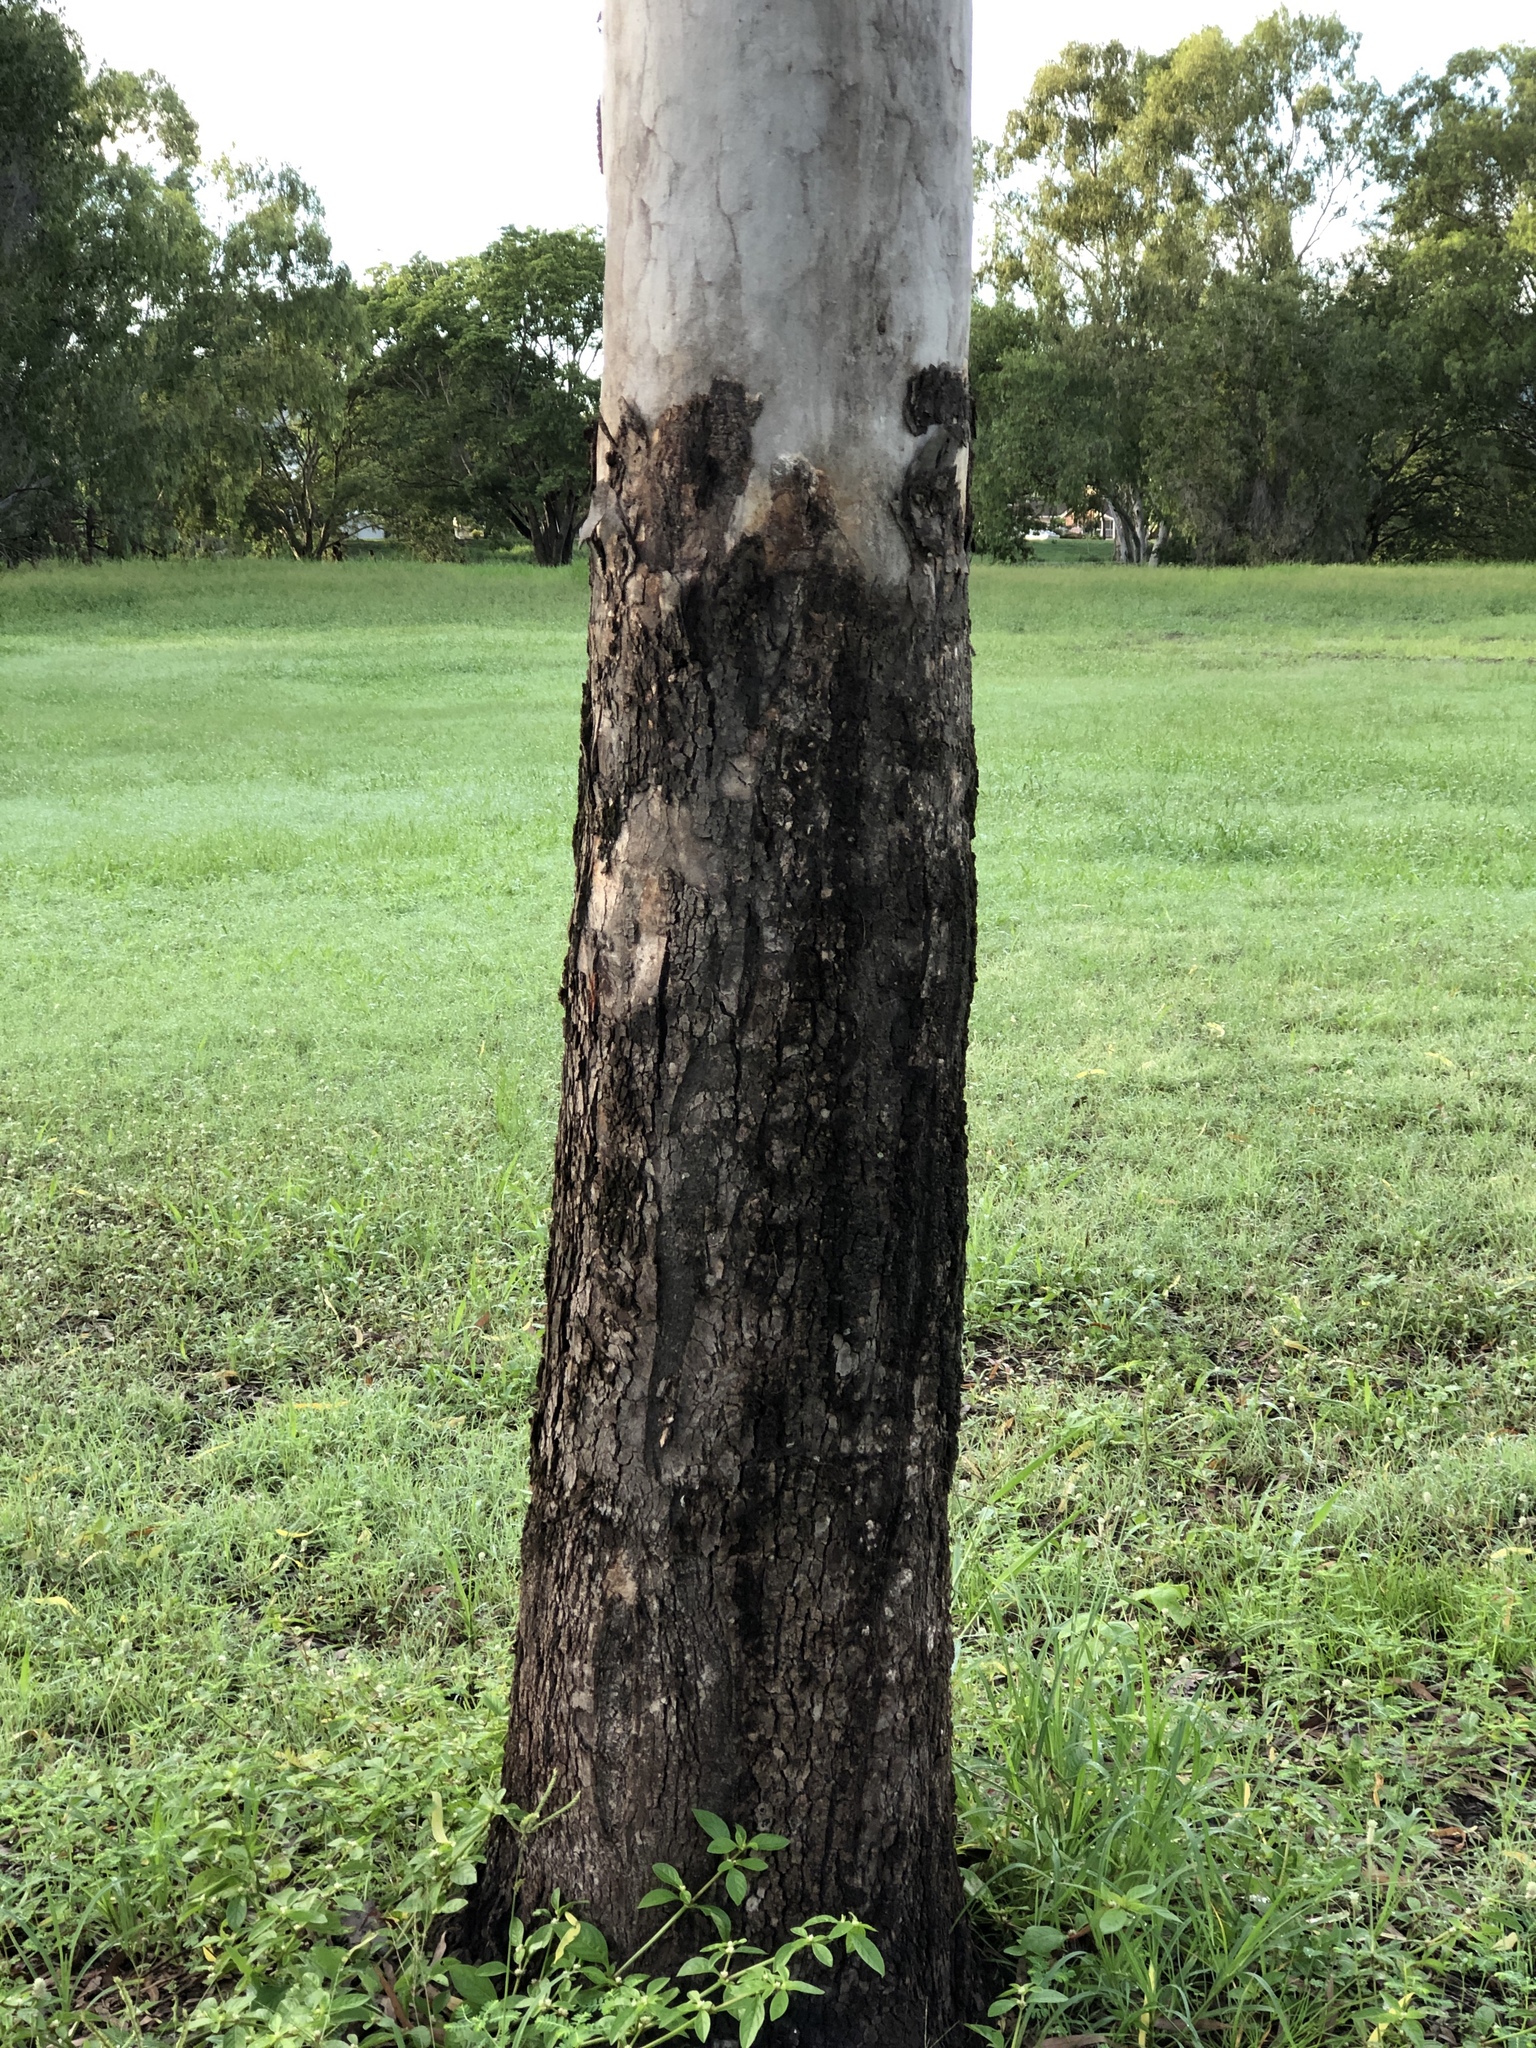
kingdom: Plantae
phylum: Tracheophyta
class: Magnoliopsida
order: Myrtales
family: Myrtaceae
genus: Corymbia
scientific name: Corymbia tessellaris
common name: Carbeen
